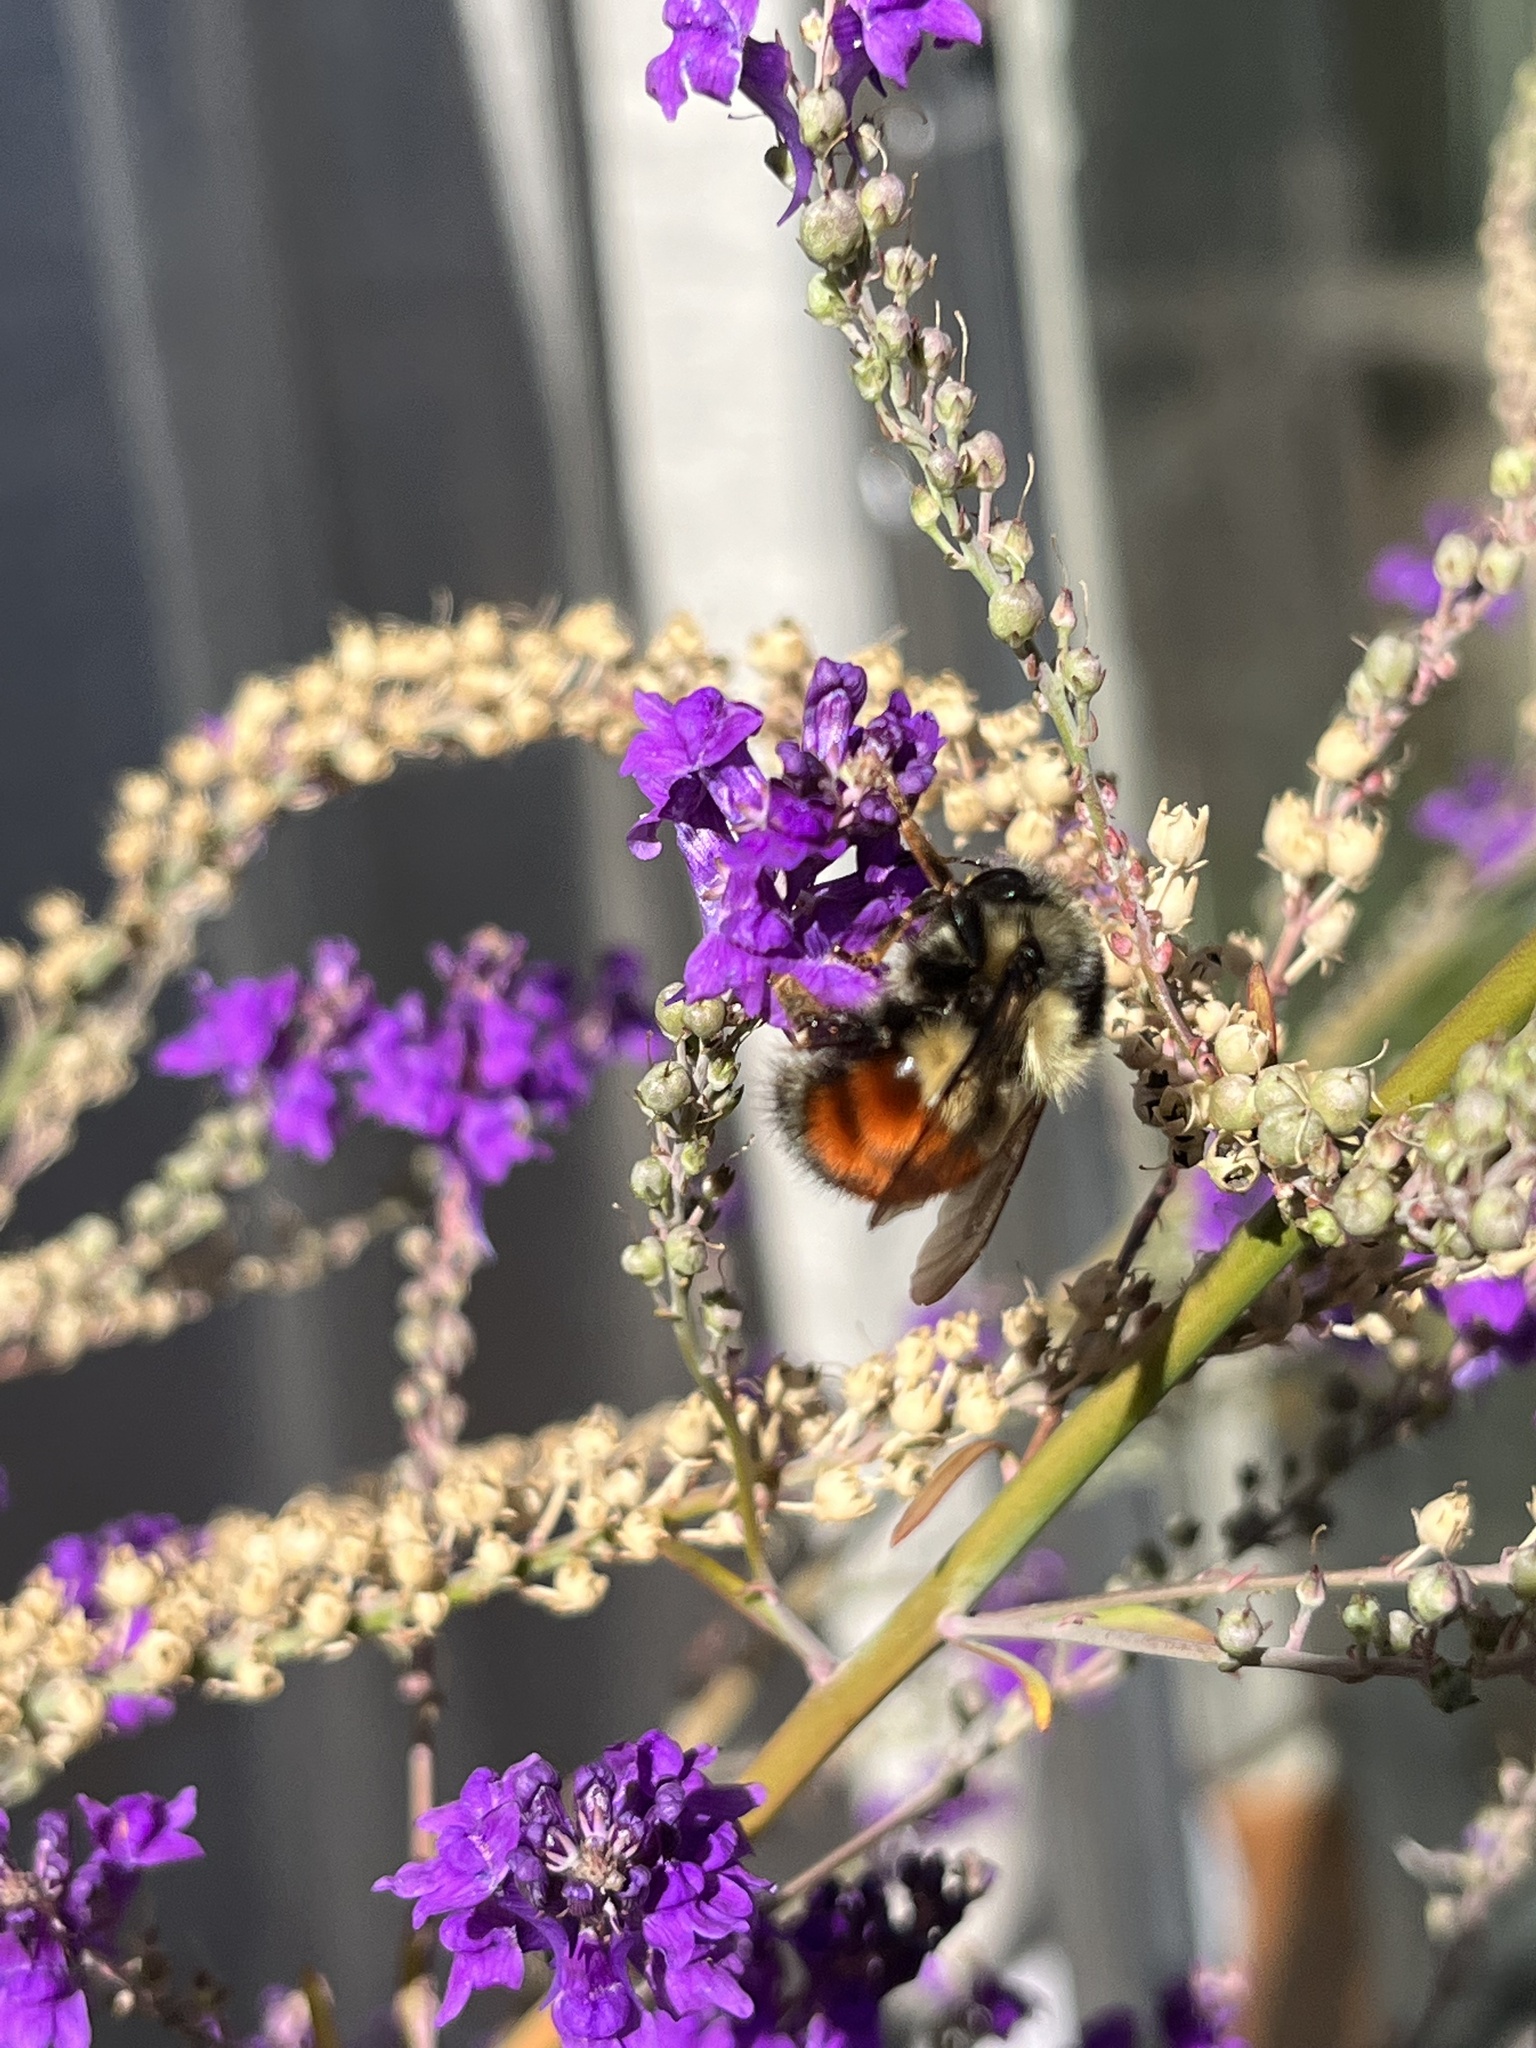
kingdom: Animalia
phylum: Arthropoda
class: Insecta
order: Hymenoptera
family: Apidae
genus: Bombus
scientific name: Bombus melanopygus
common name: Black tail bumble bee
